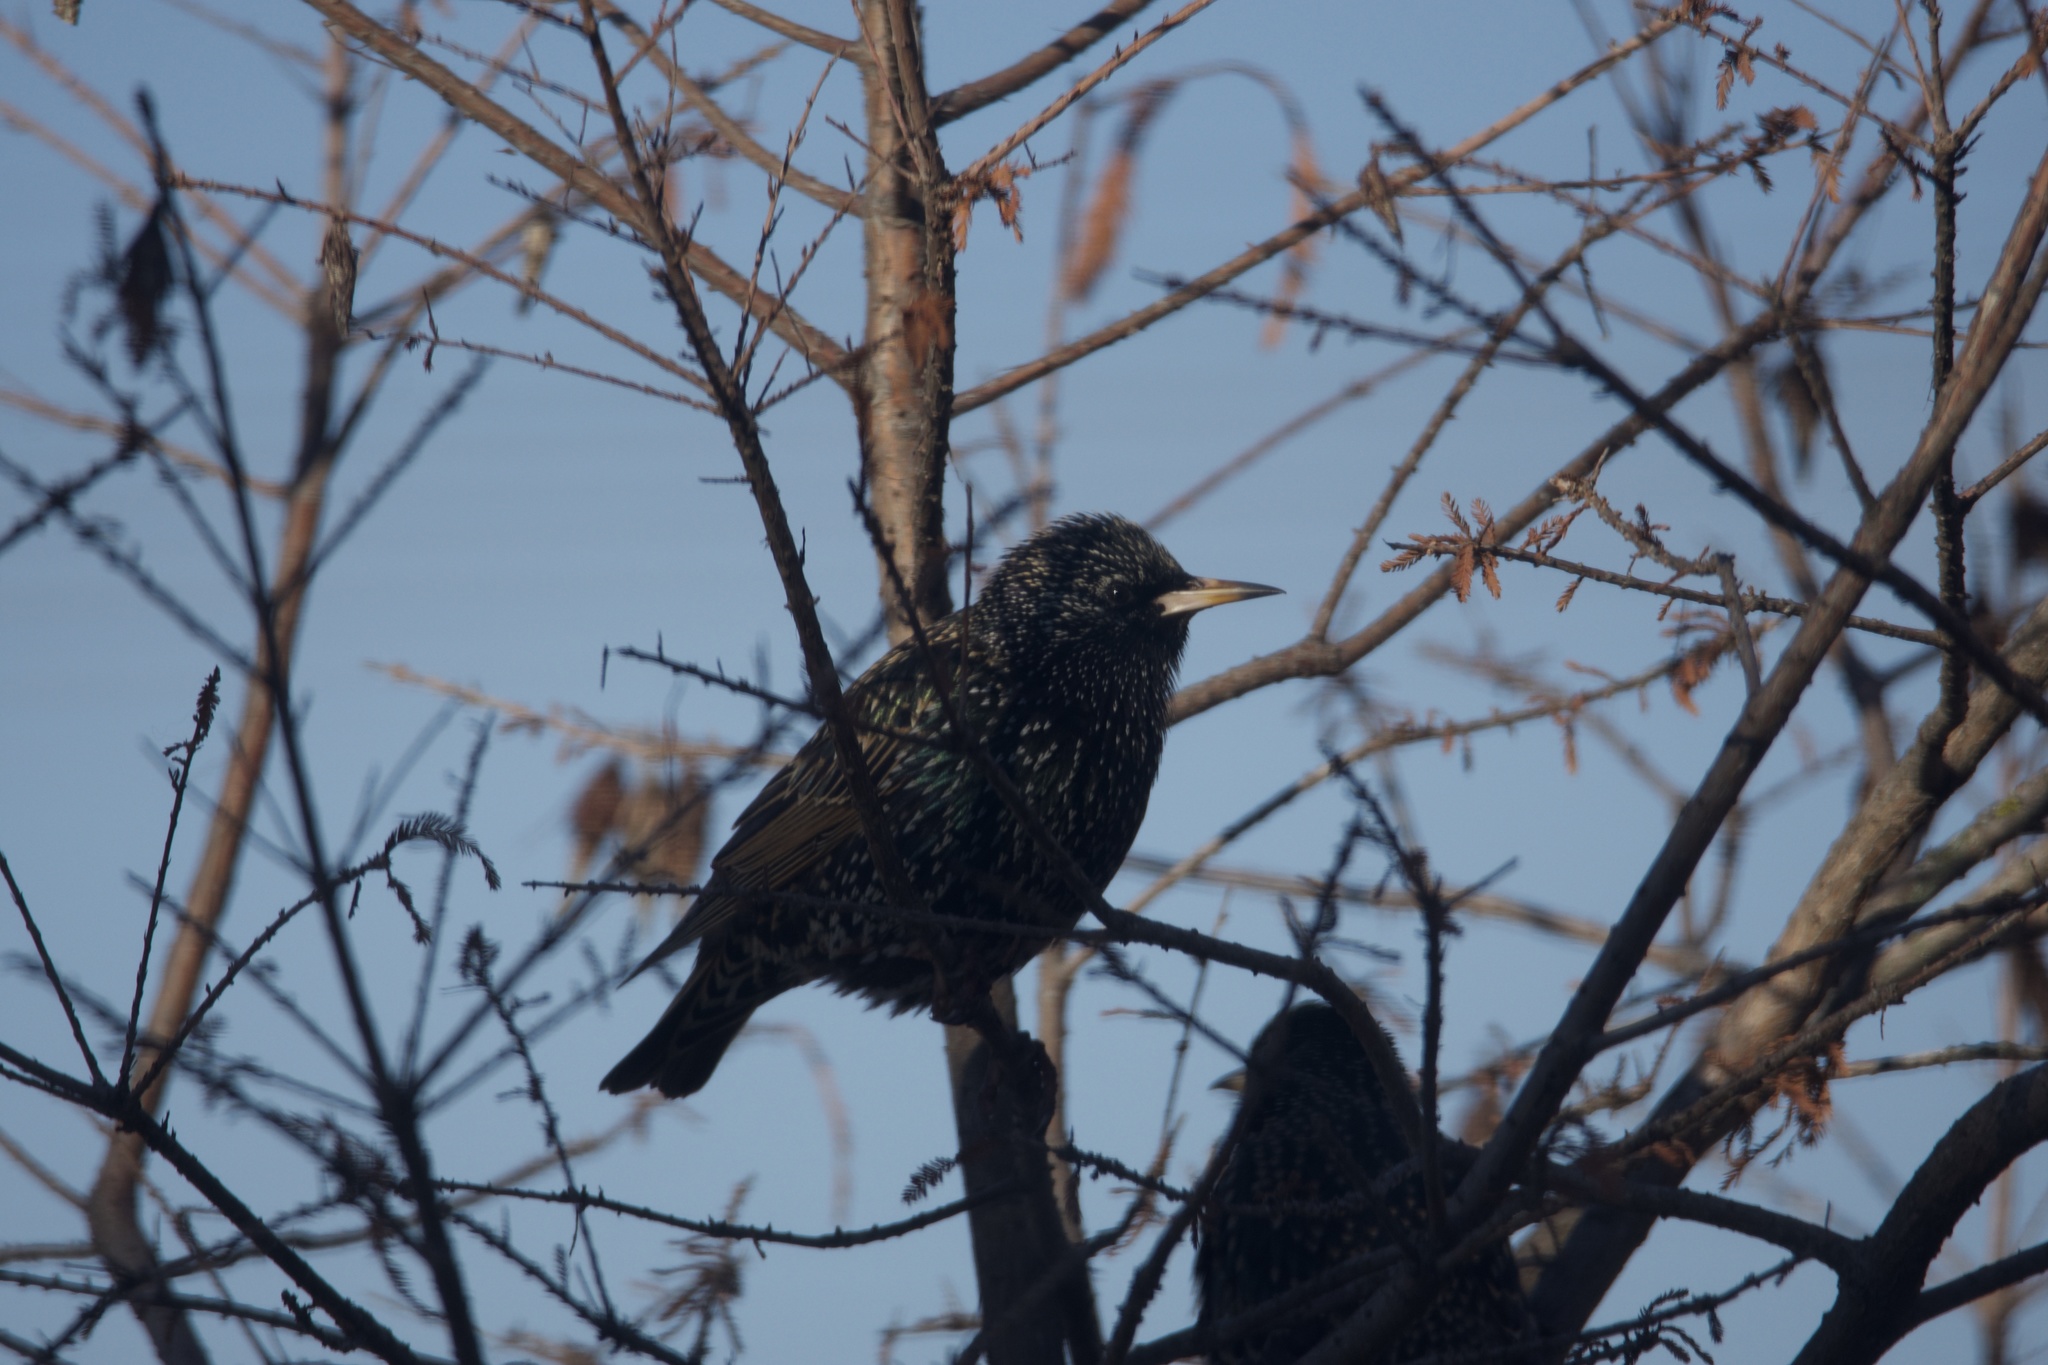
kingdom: Animalia
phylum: Chordata
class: Aves
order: Passeriformes
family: Sturnidae
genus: Sturnus
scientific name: Sturnus vulgaris
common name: Common starling
